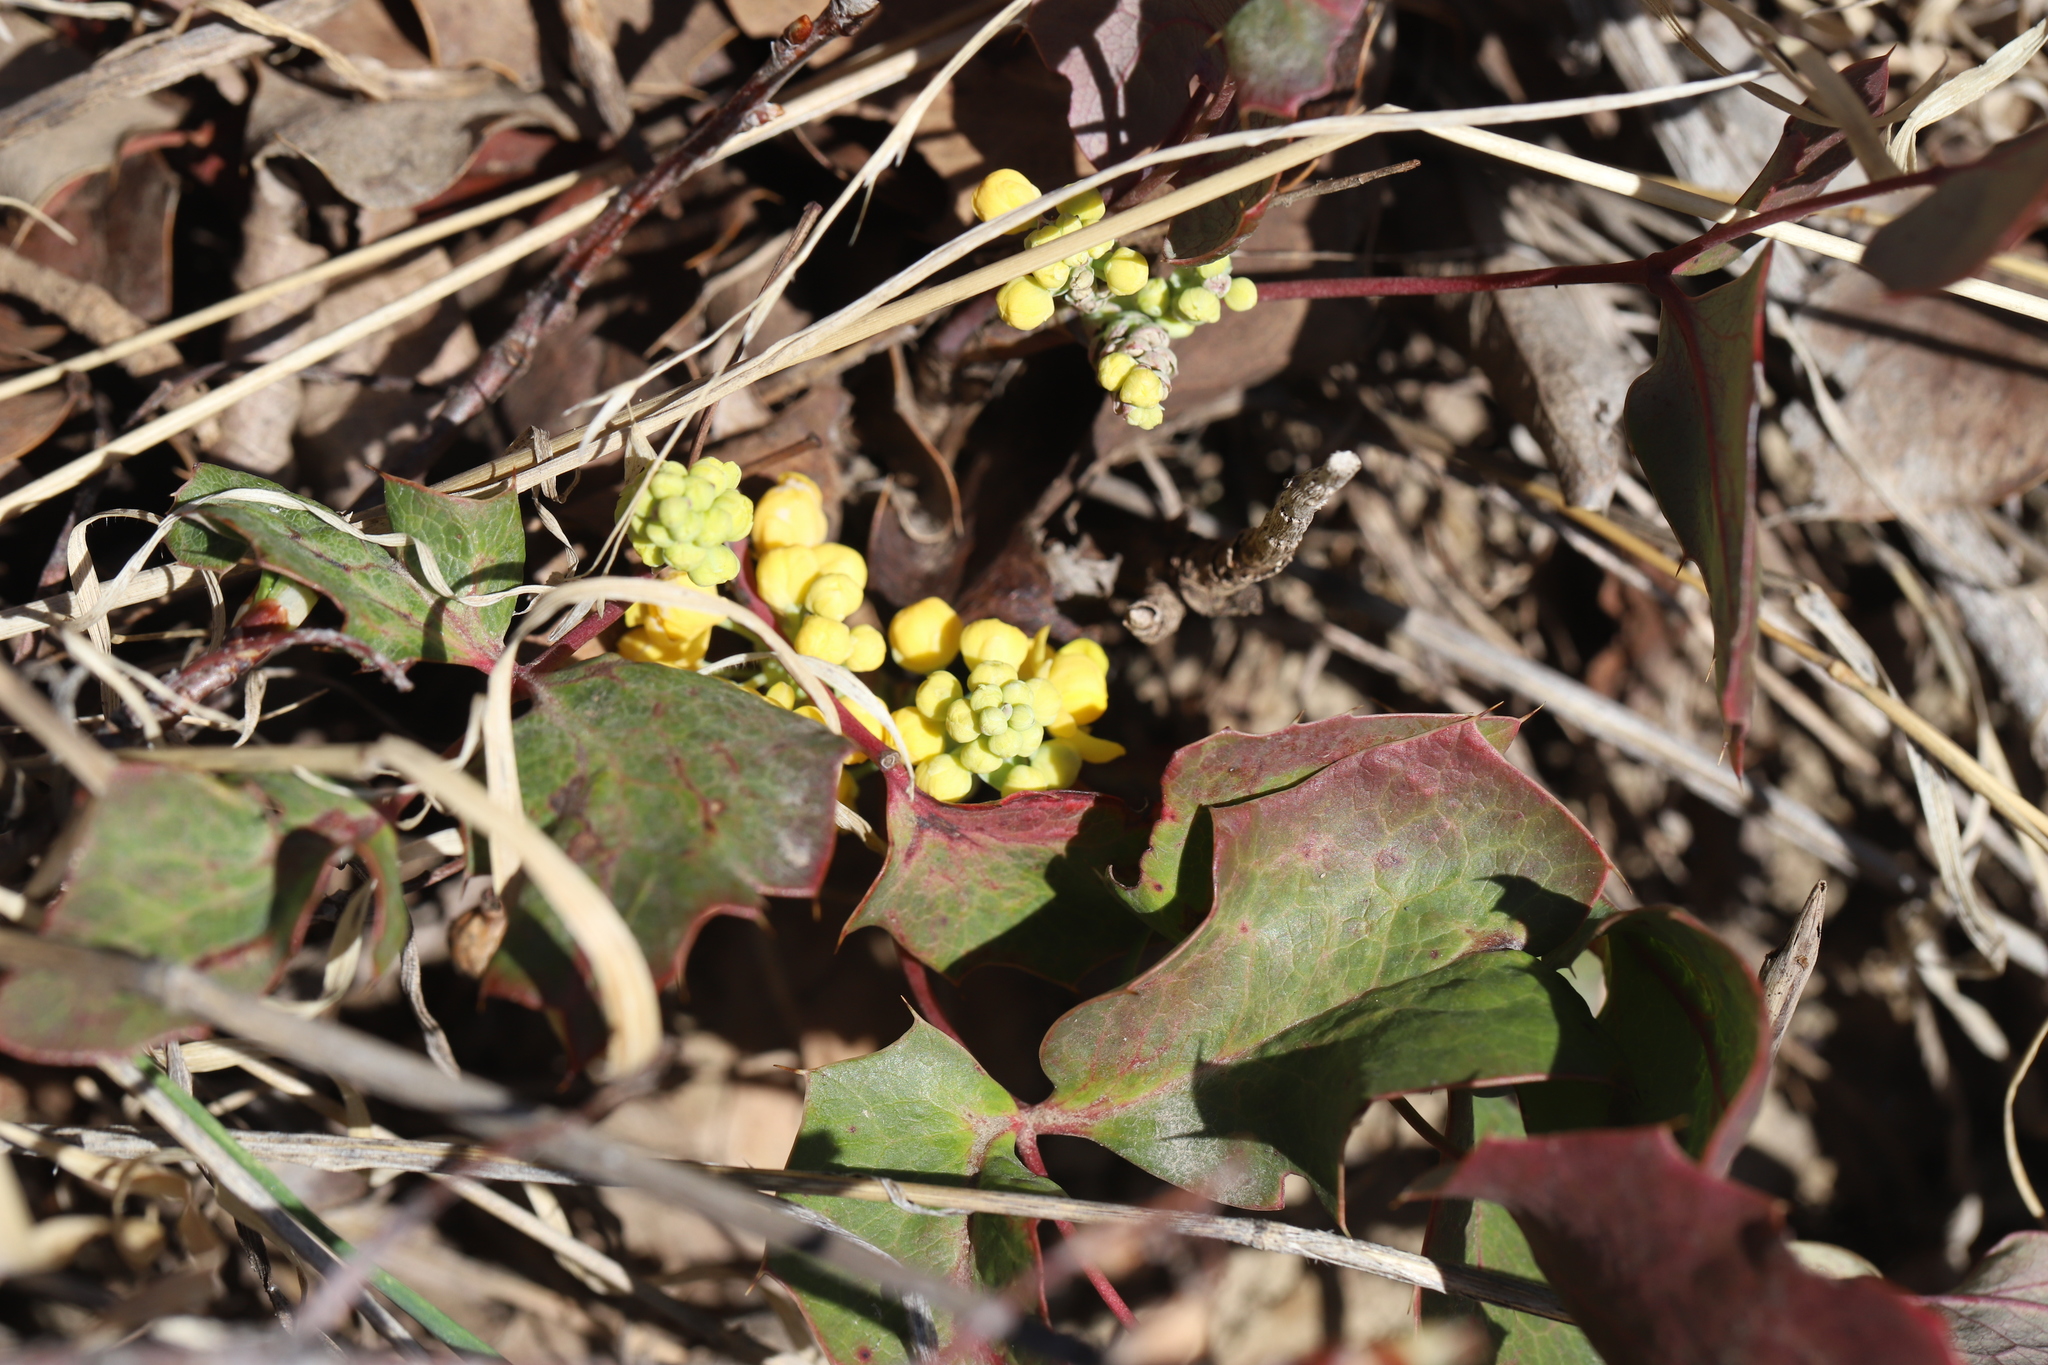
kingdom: Plantae
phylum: Tracheophyta
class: Magnoliopsida
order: Ranunculales
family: Berberidaceae
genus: Mahonia
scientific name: Mahonia repens
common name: Creeping oregon-grape
